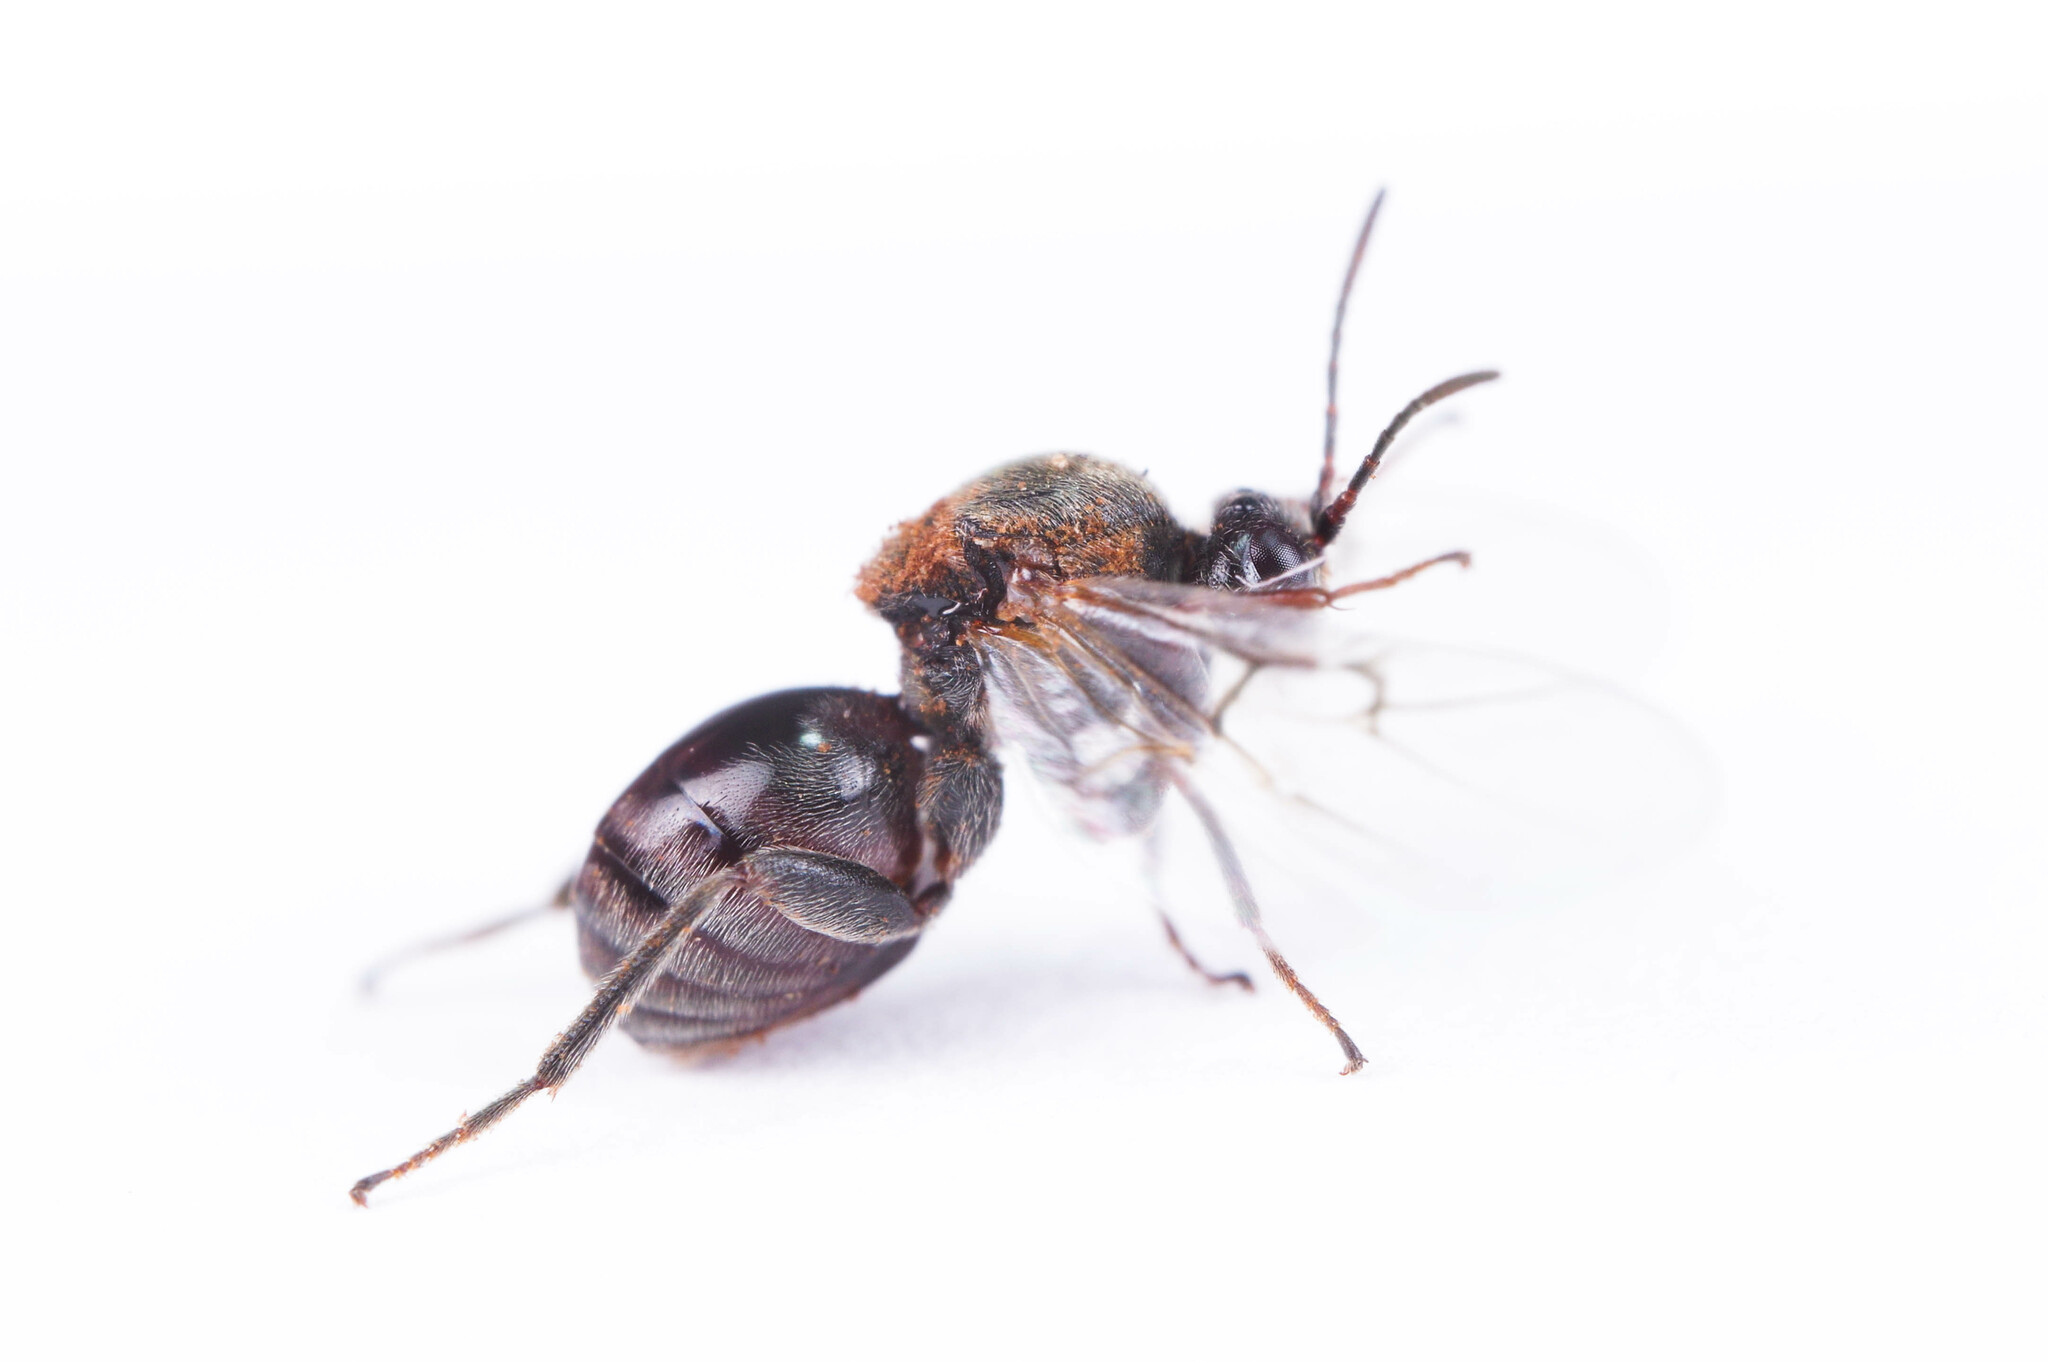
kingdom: Animalia
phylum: Arthropoda
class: Insecta
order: Hymenoptera
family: Cynipidae
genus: Andricus
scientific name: Andricus
